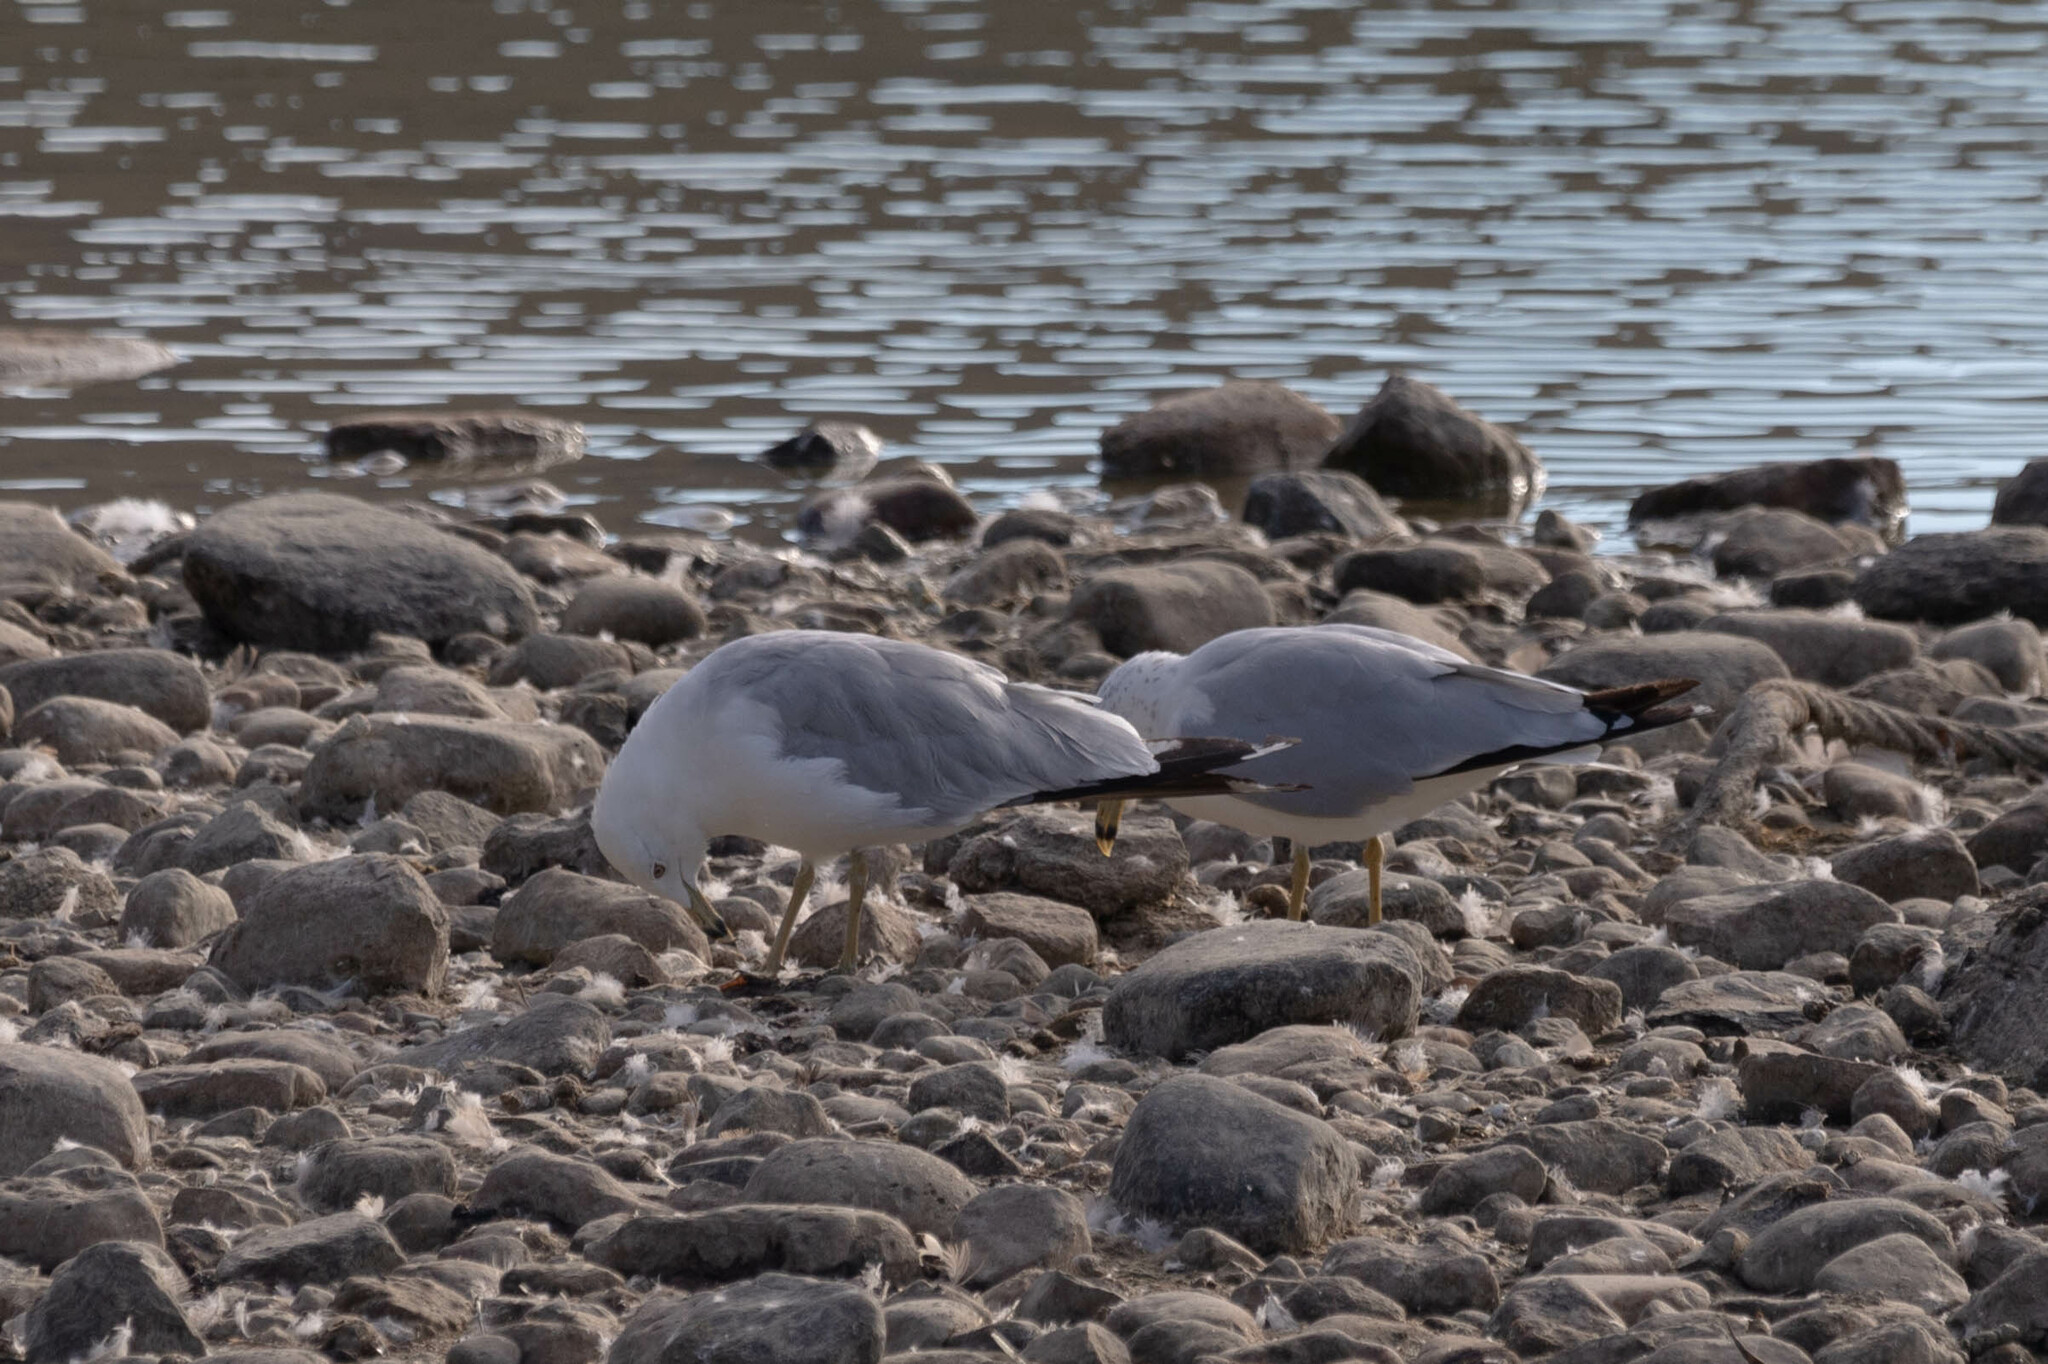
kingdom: Animalia
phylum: Chordata
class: Aves
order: Charadriiformes
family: Laridae
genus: Larus
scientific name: Larus delawarensis
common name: Ring-billed gull
